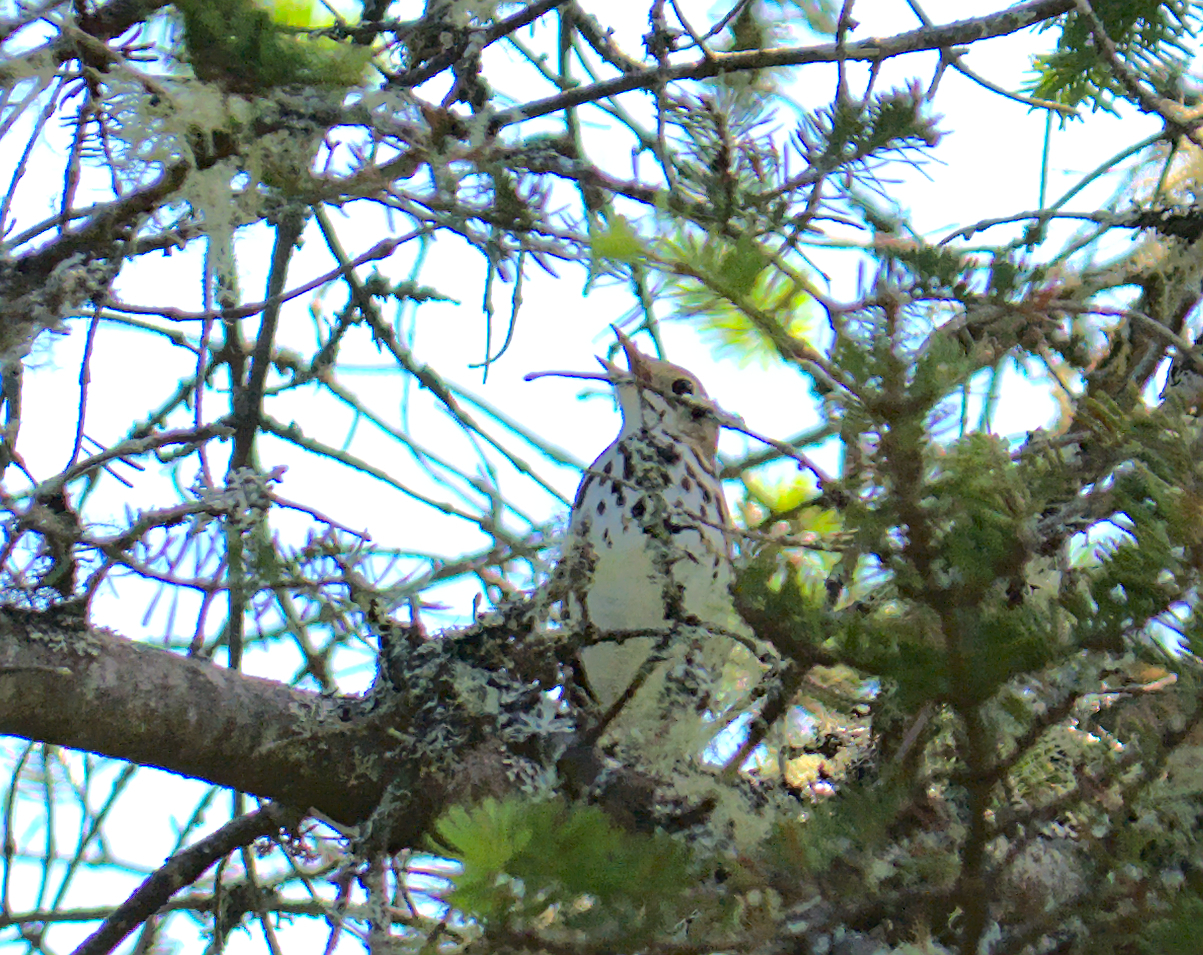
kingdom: Animalia
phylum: Chordata
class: Aves
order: Passeriformes
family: Parulidae
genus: Seiurus
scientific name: Seiurus aurocapilla
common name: Ovenbird
